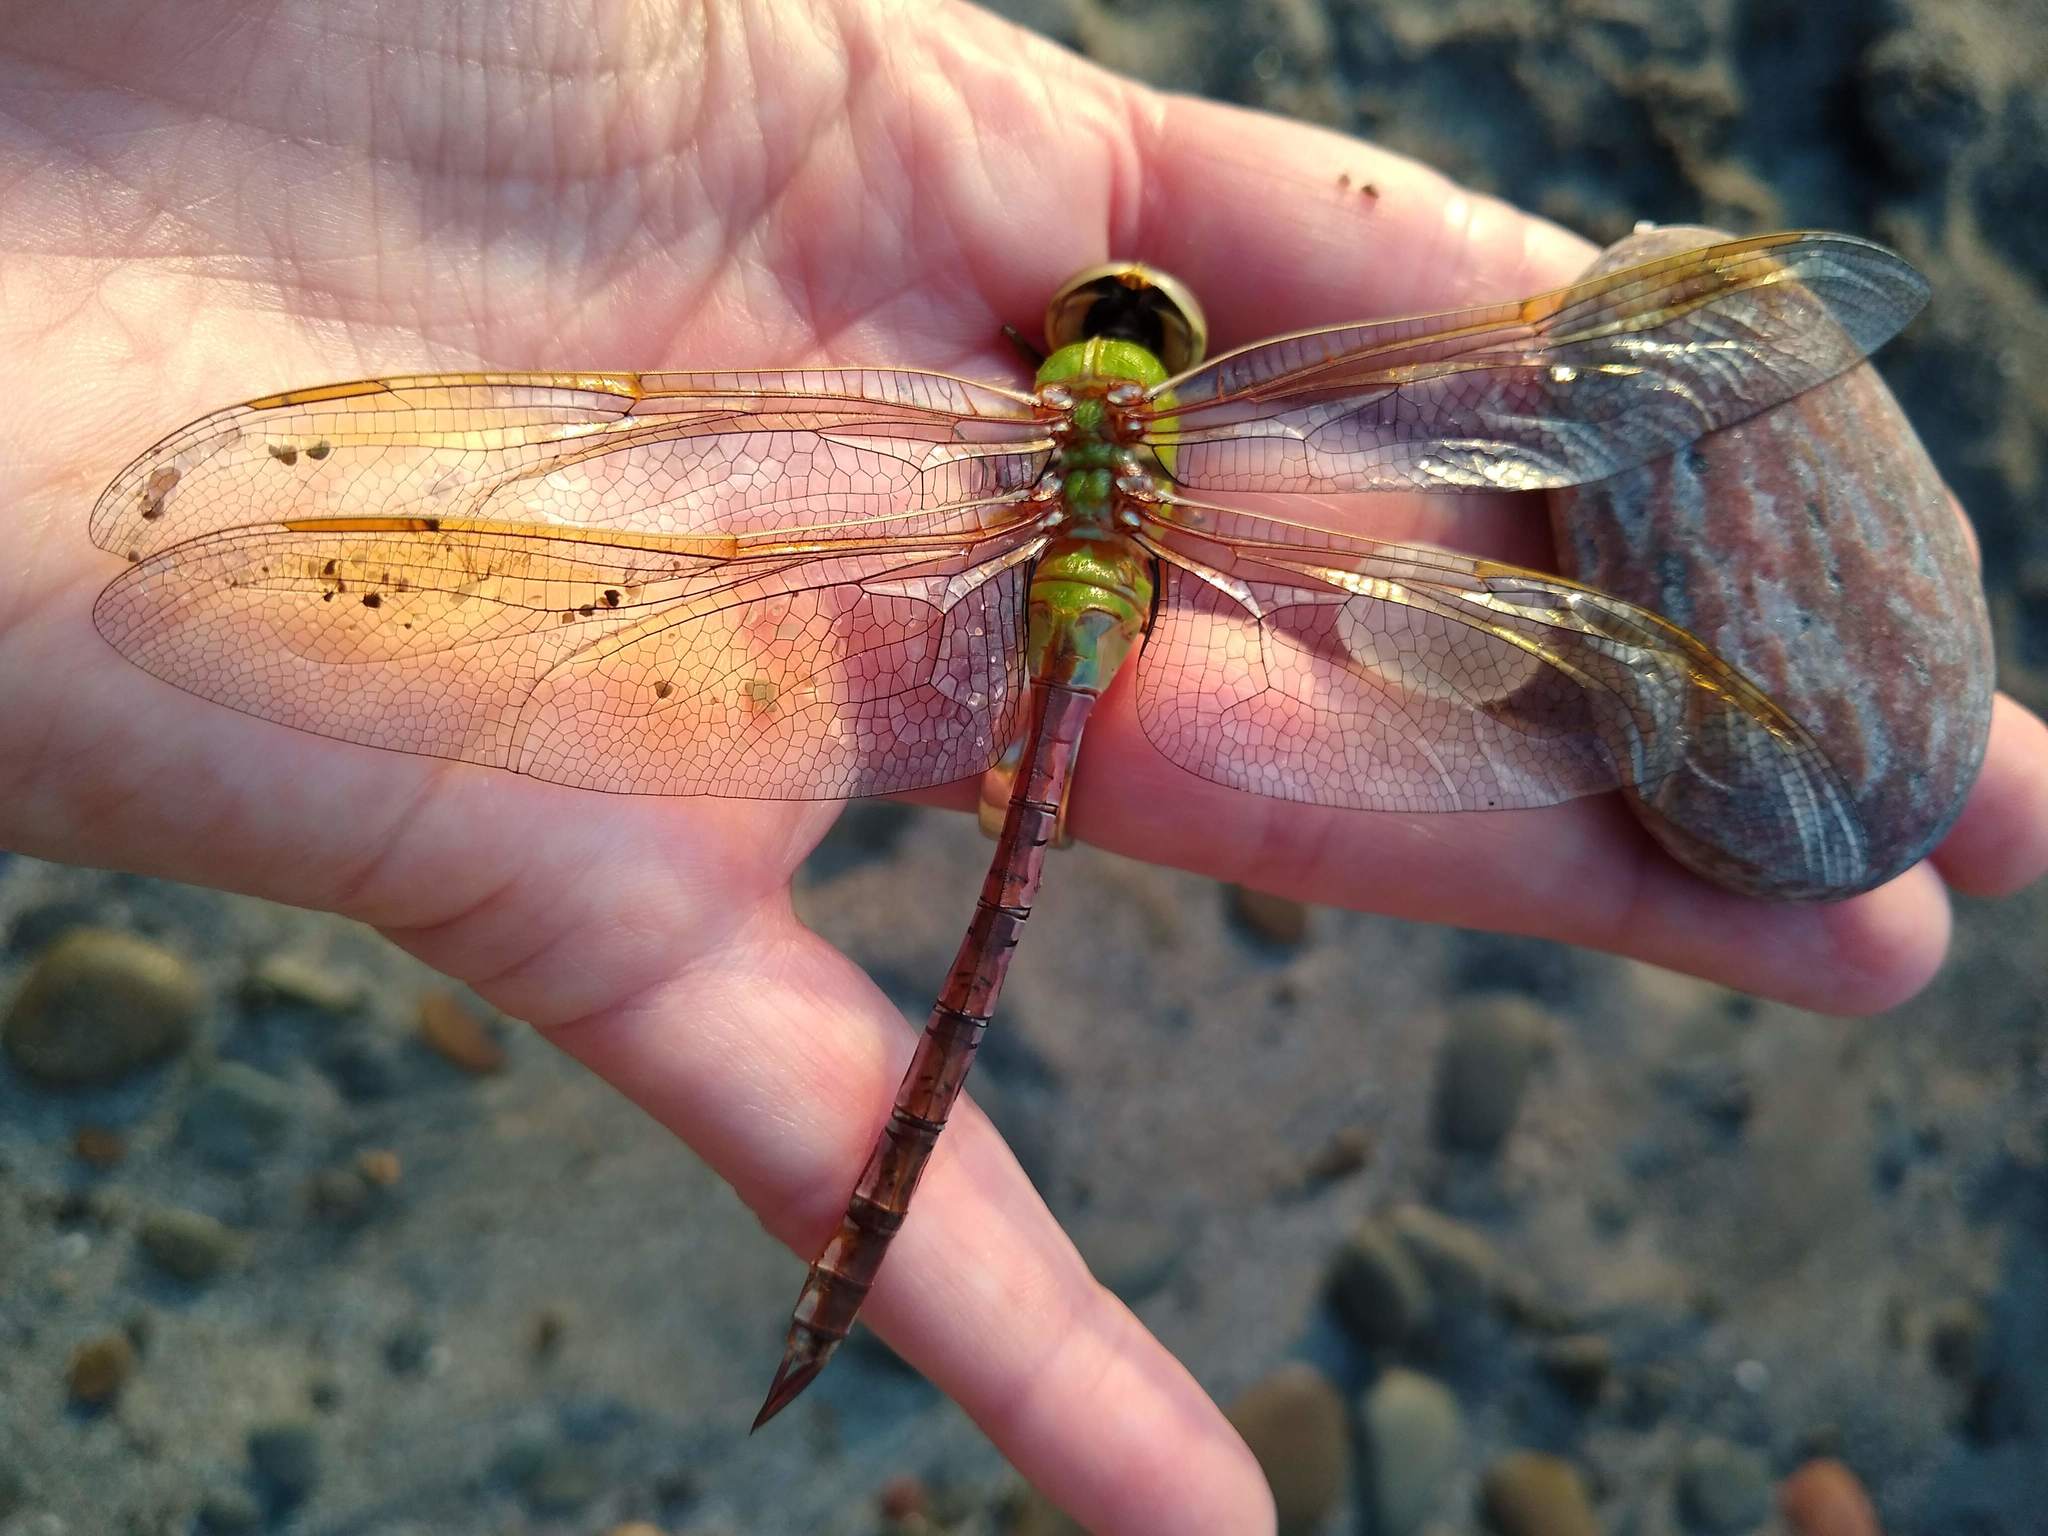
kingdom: Animalia
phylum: Arthropoda
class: Insecta
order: Odonata
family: Aeshnidae
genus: Anax
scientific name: Anax junius
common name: Common green darner
